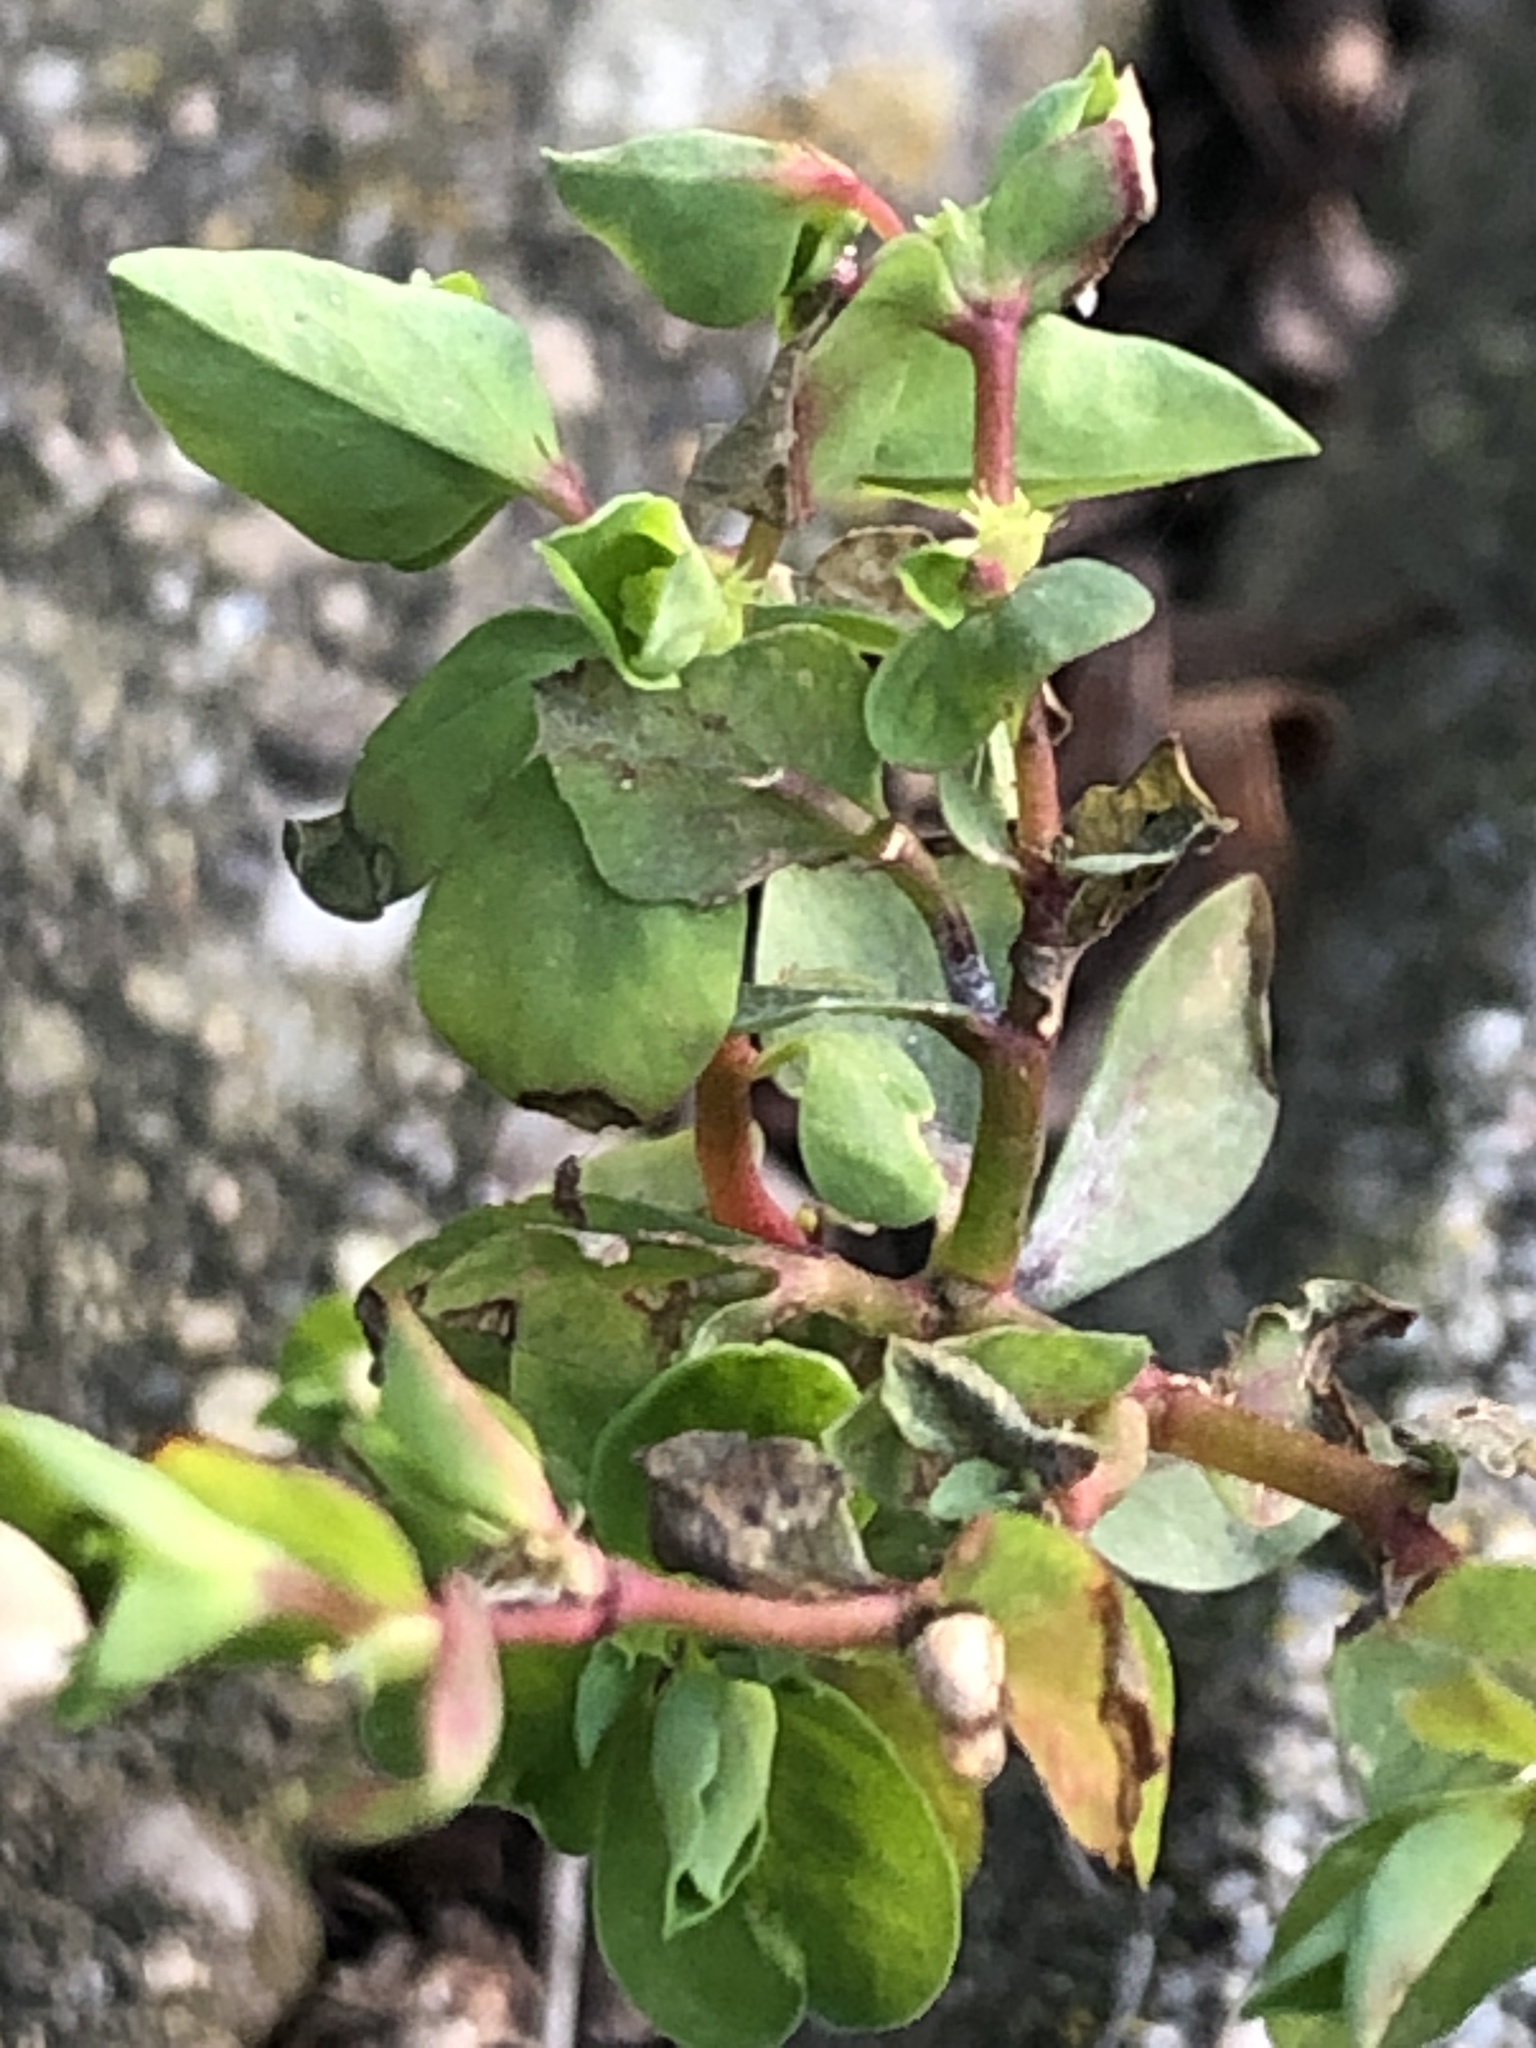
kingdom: Plantae
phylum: Tracheophyta
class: Magnoliopsida
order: Malpighiales
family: Euphorbiaceae
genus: Euphorbia
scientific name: Euphorbia peplus
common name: Petty spurge
